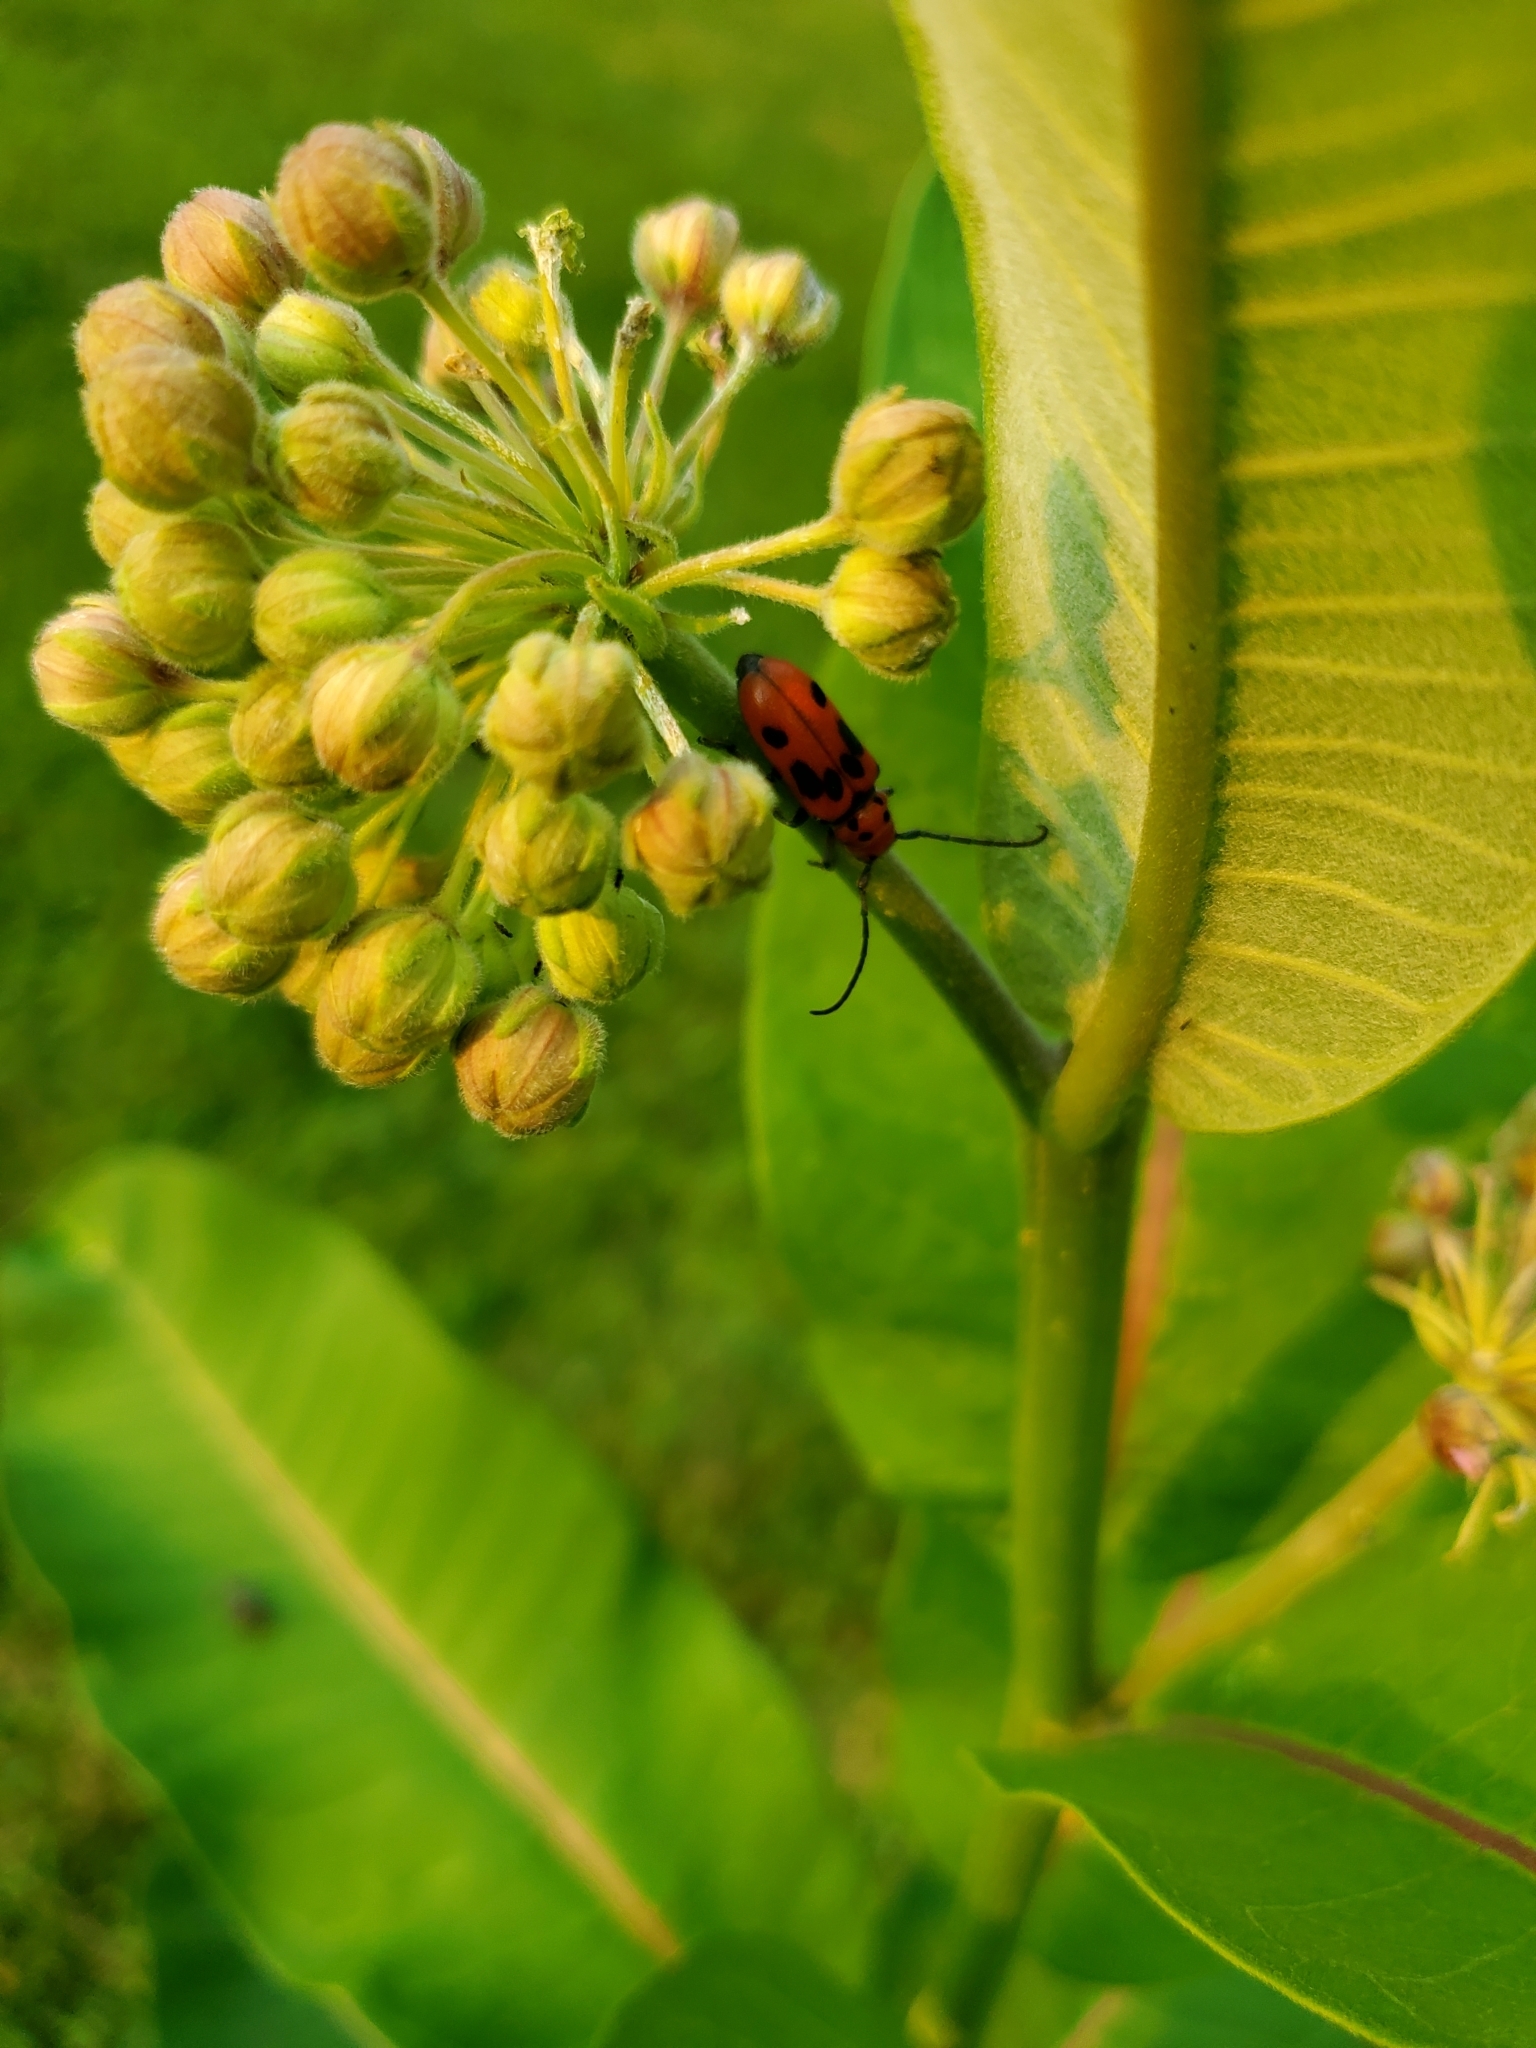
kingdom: Animalia
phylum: Arthropoda
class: Insecta
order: Coleoptera
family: Cerambycidae
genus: Tetraopes
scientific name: Tetraopes tetrophthalmus
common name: Red milkweed beetle
